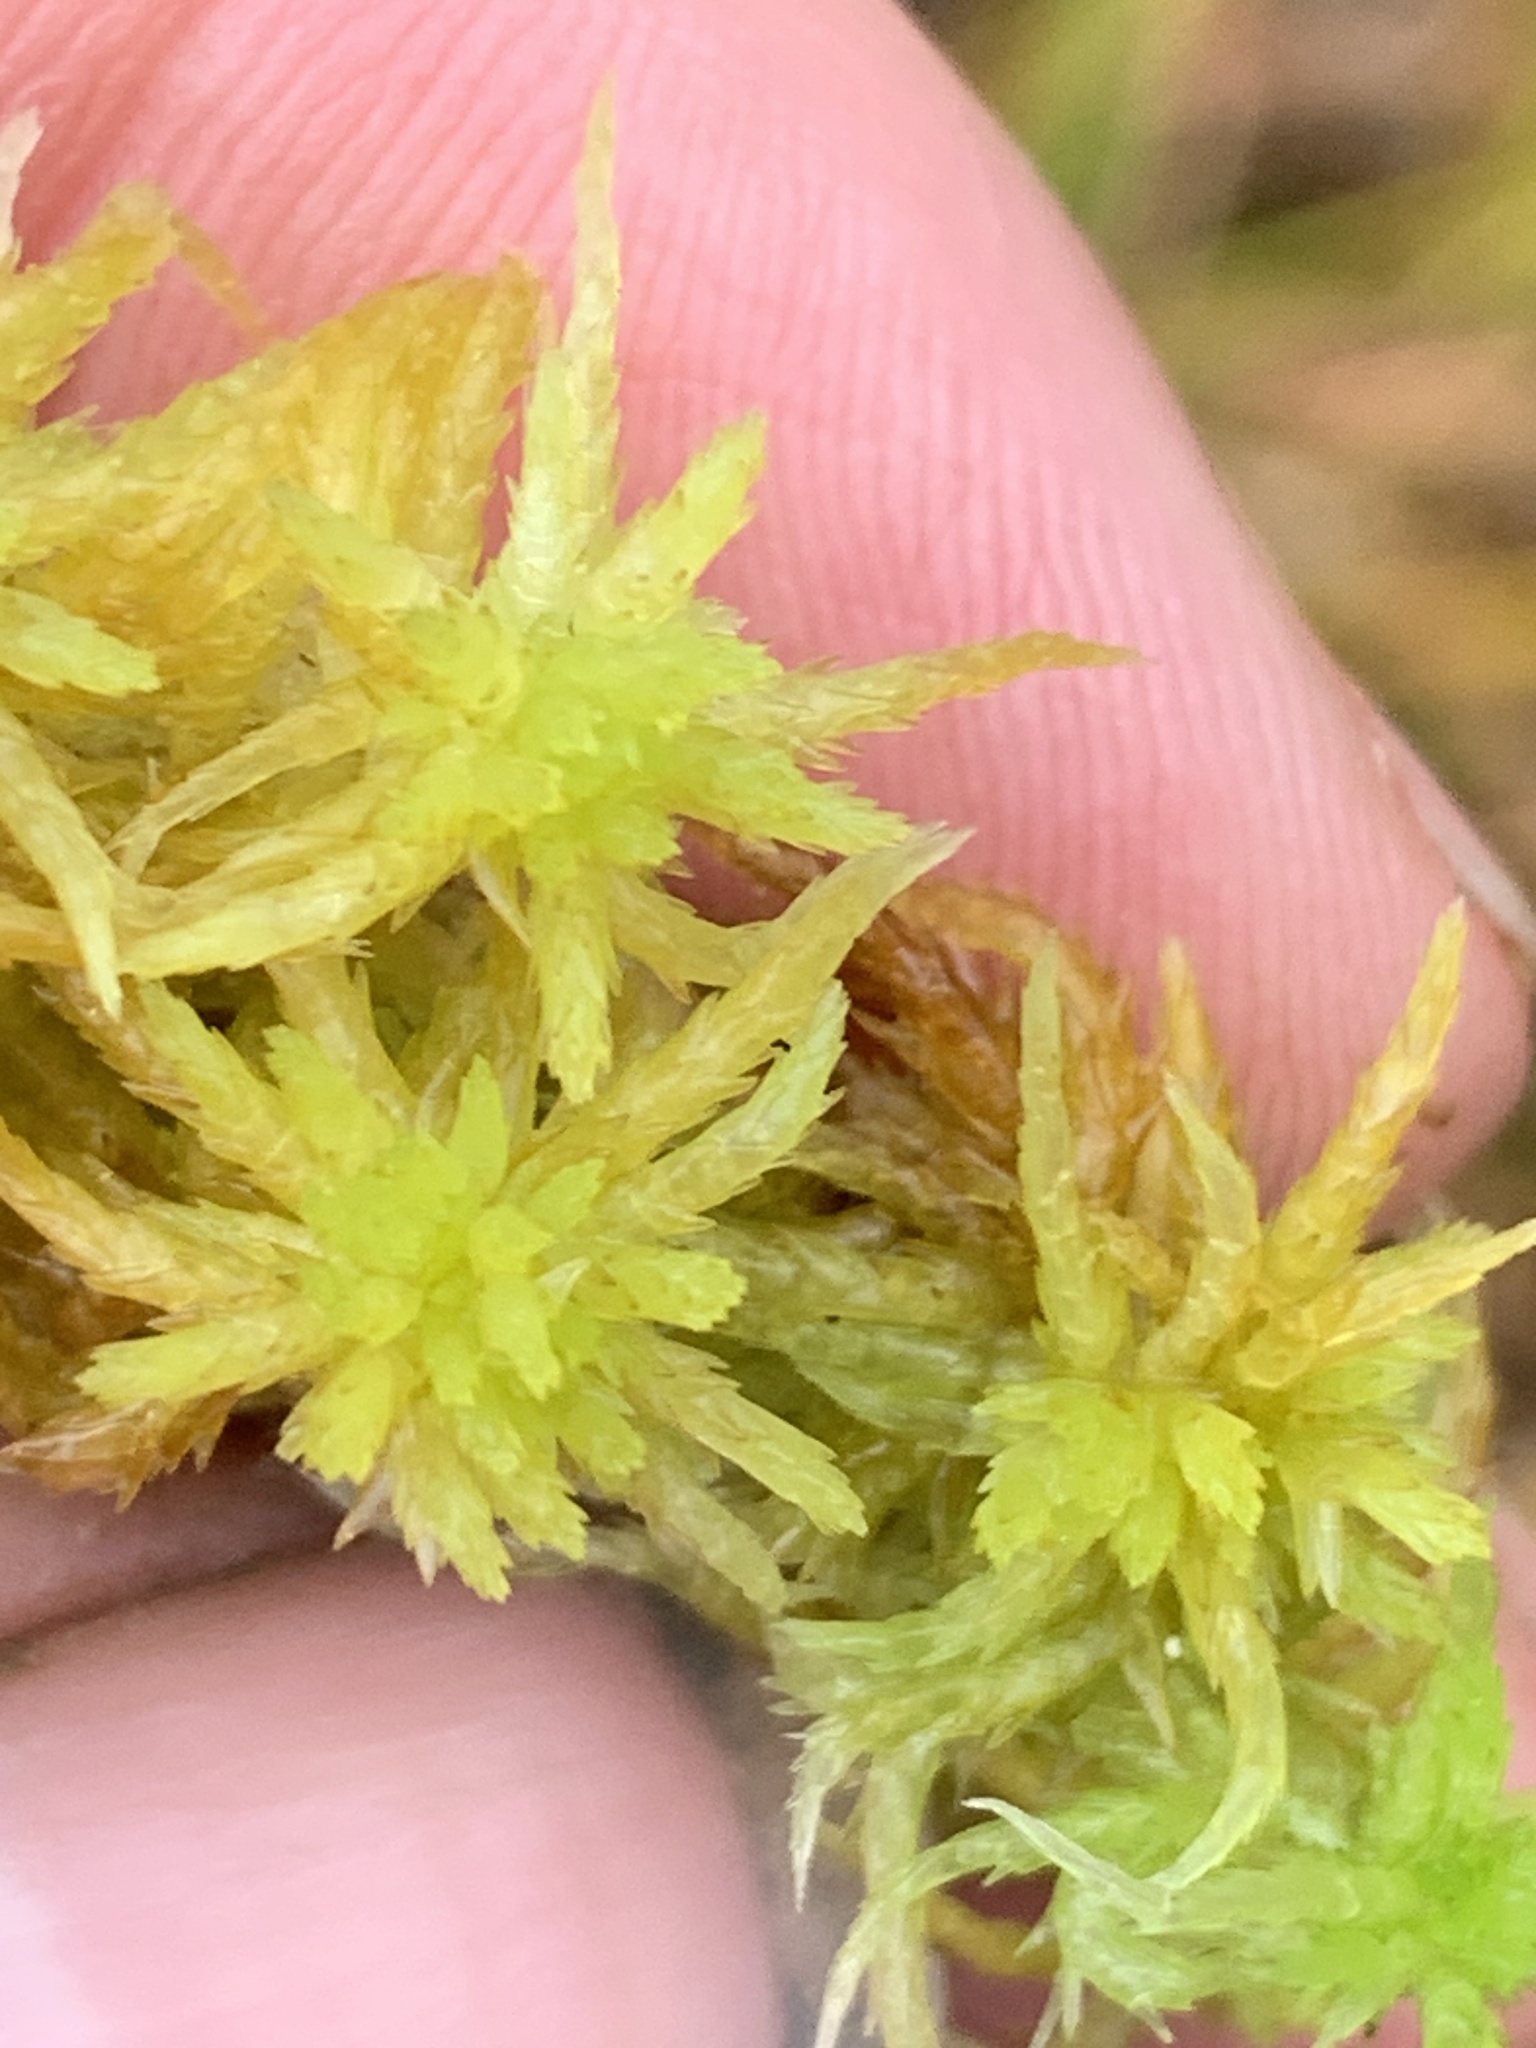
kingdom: Plantae
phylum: Bryophyta
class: Sphagnopsida
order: Sphagnales
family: Sphagnaceae
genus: Sphagnum
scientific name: Sphagnum
